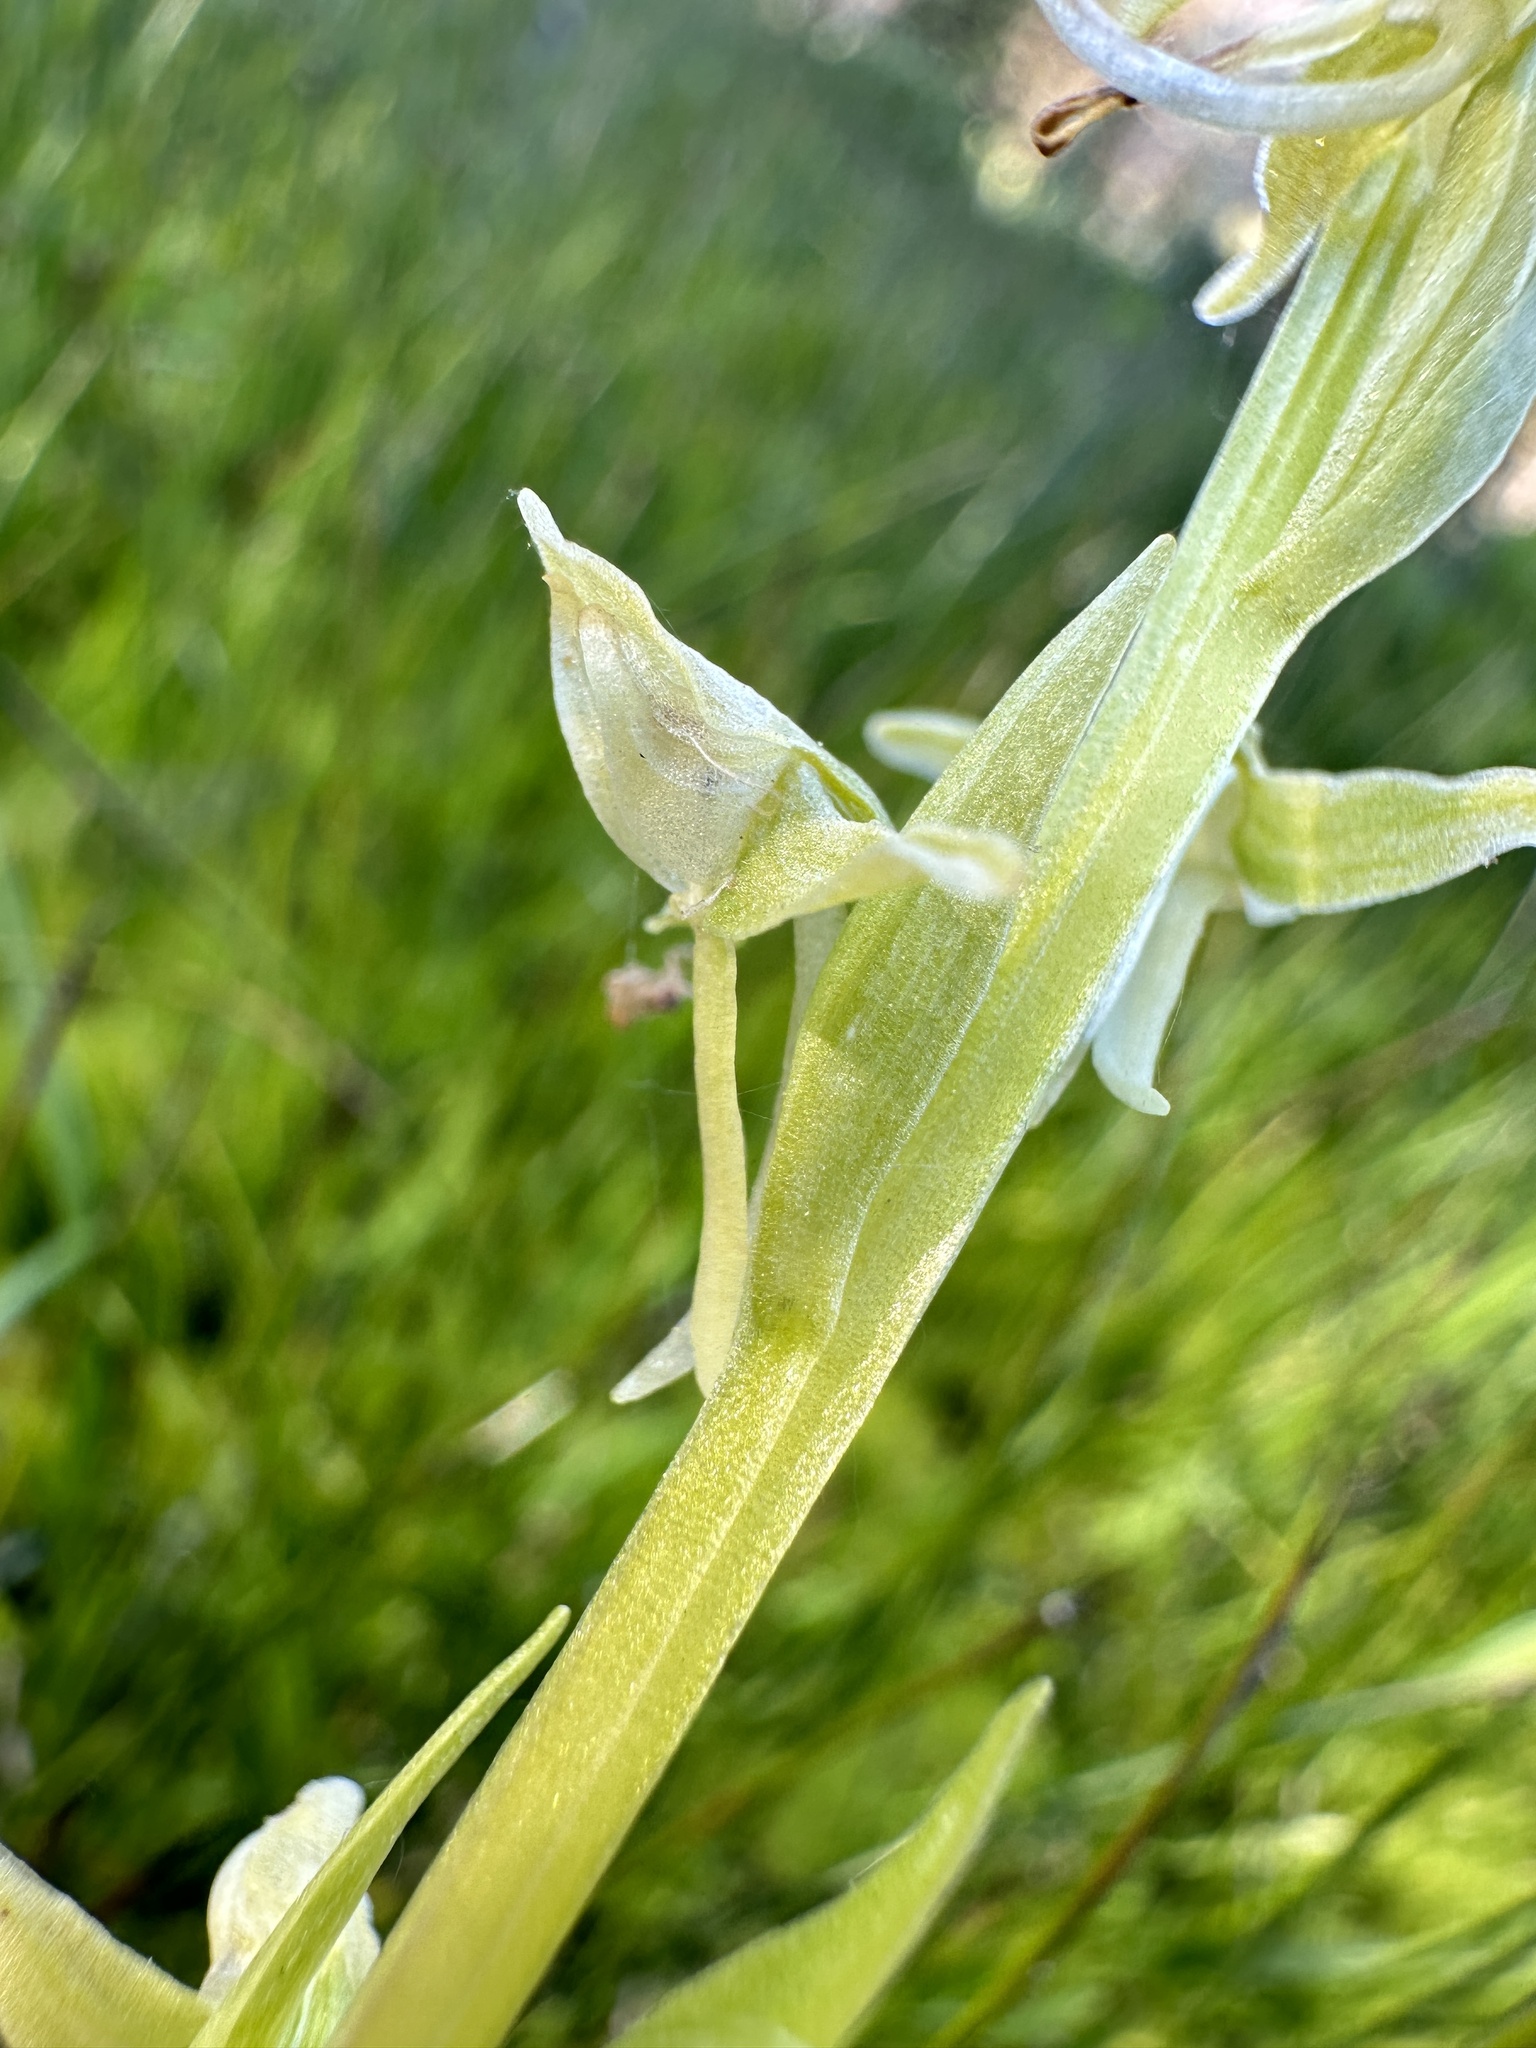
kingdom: Plantae
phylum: Tracheophyta
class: Liliopsida
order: Asparagales
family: Orchidaceae
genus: Platanthera
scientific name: Platanthera sparsiflora
